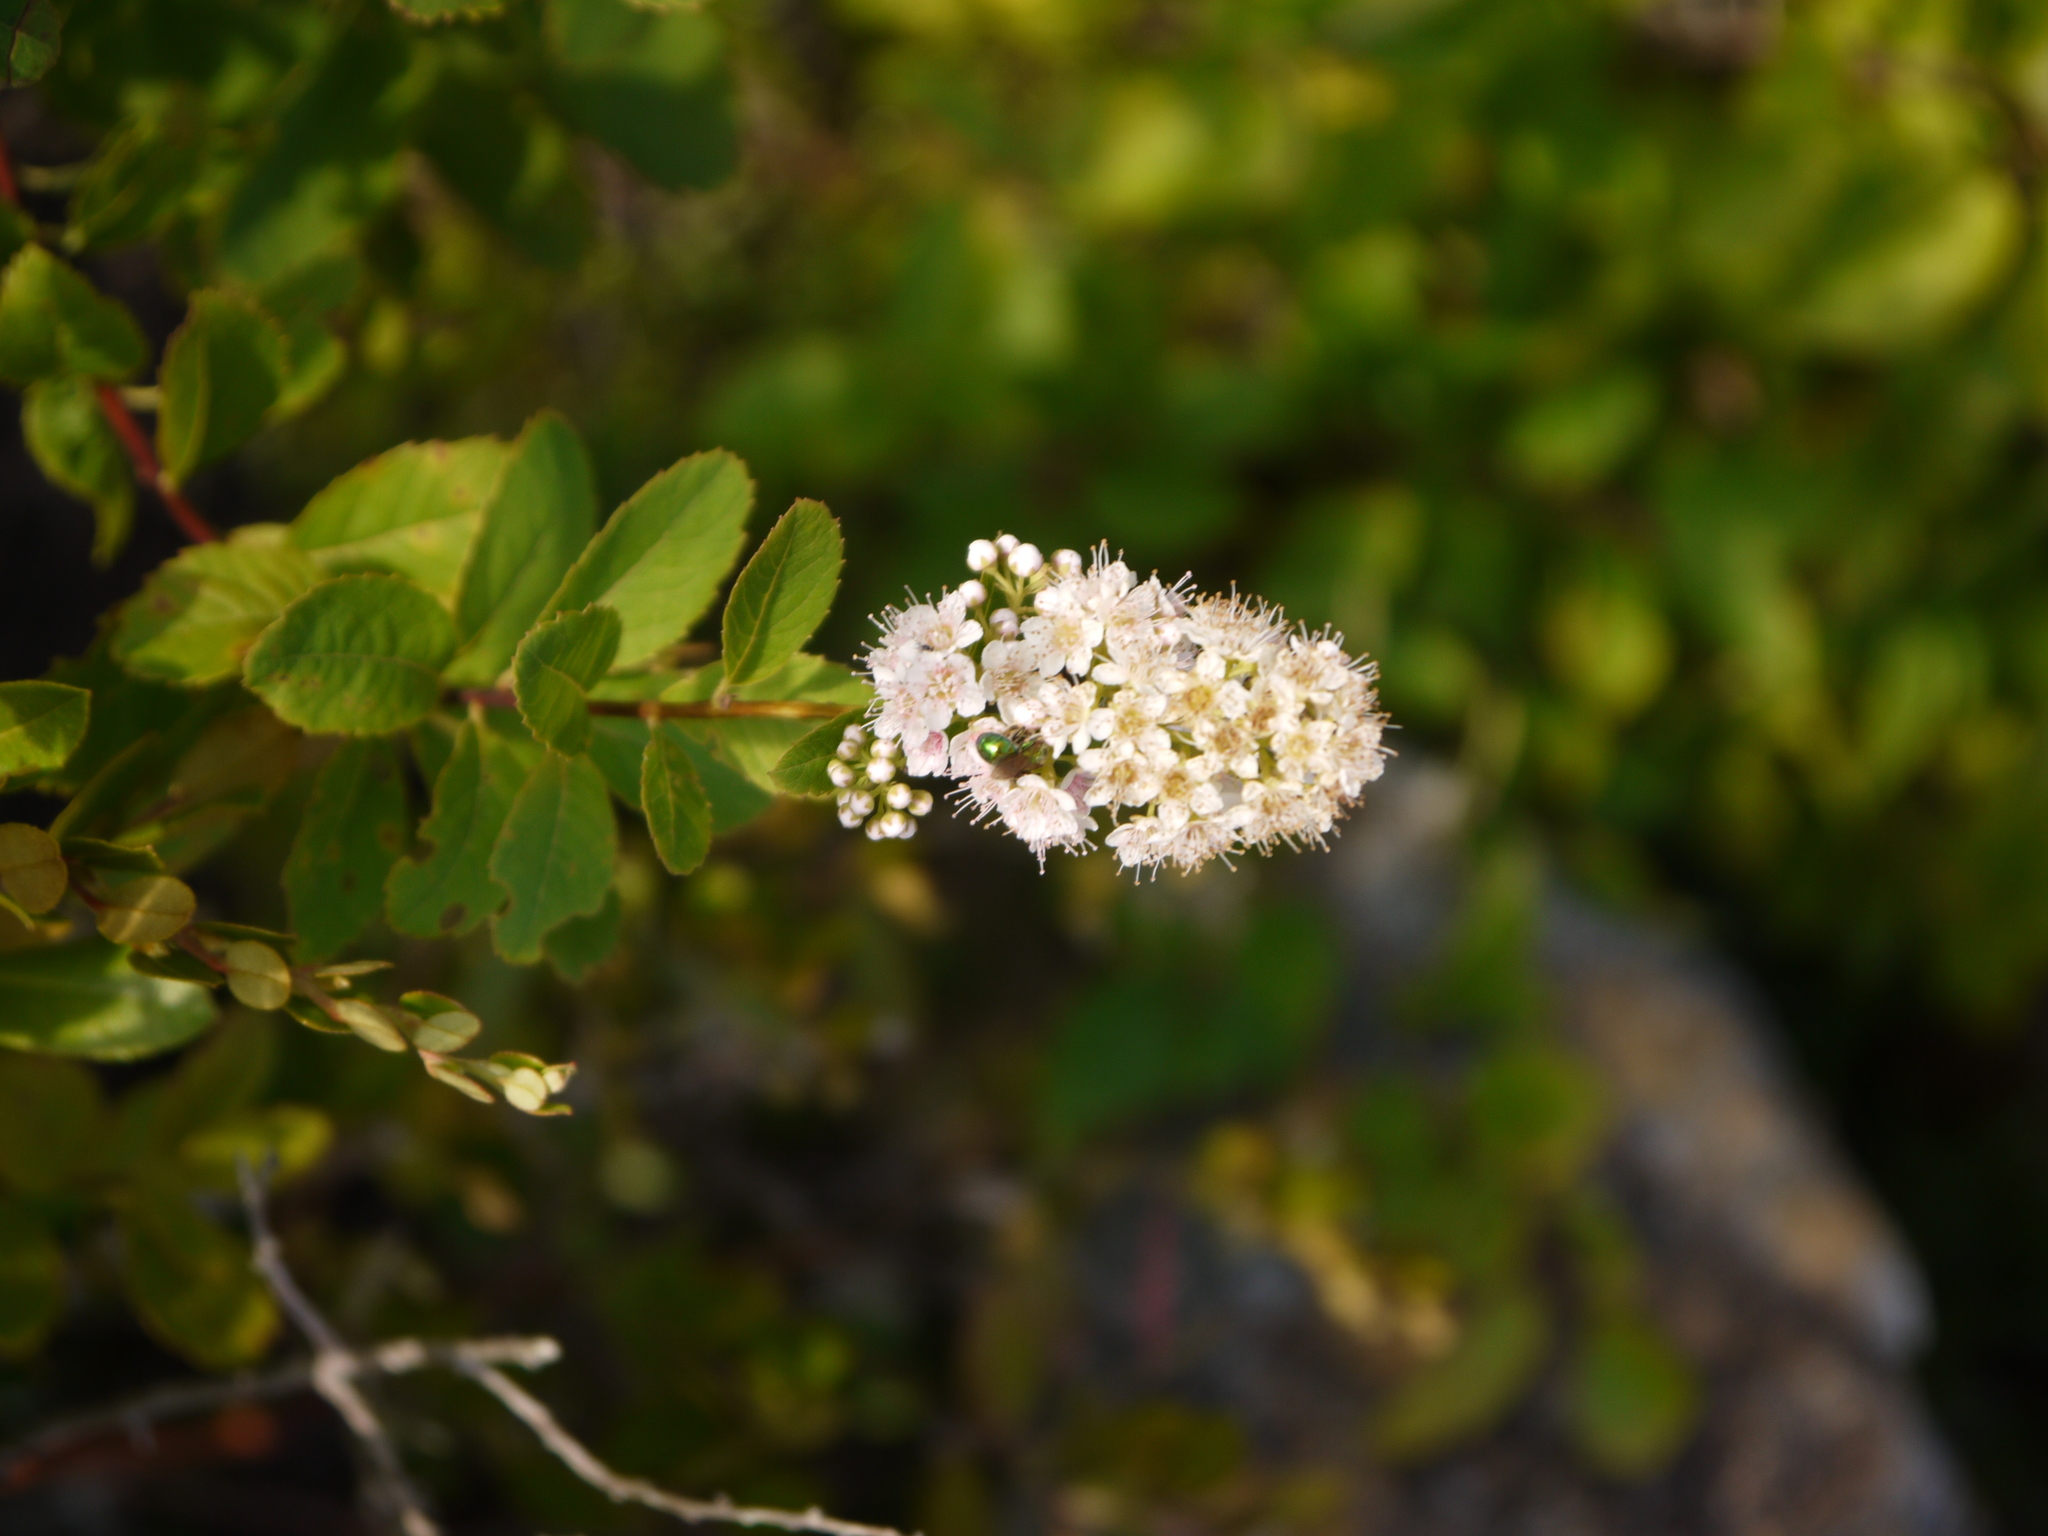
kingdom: Plantae
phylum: Tracheophyta
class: Magnoliopsida
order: Rosales
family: Rosaceae
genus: Spiraea
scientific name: Spiraea alba
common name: Pale bridewort
